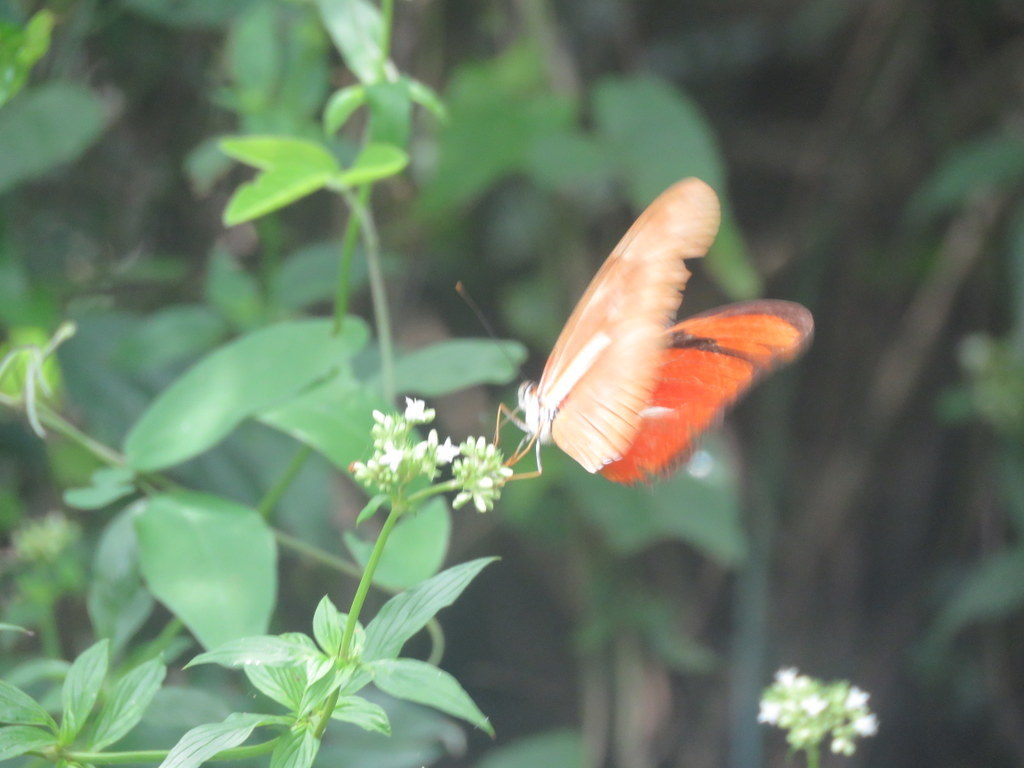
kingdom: Animalia
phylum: Arthropoda
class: Insecta
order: Lepidoptera
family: Nymphalidae
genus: Dryas
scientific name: Dryas iulia
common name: Flambeau
